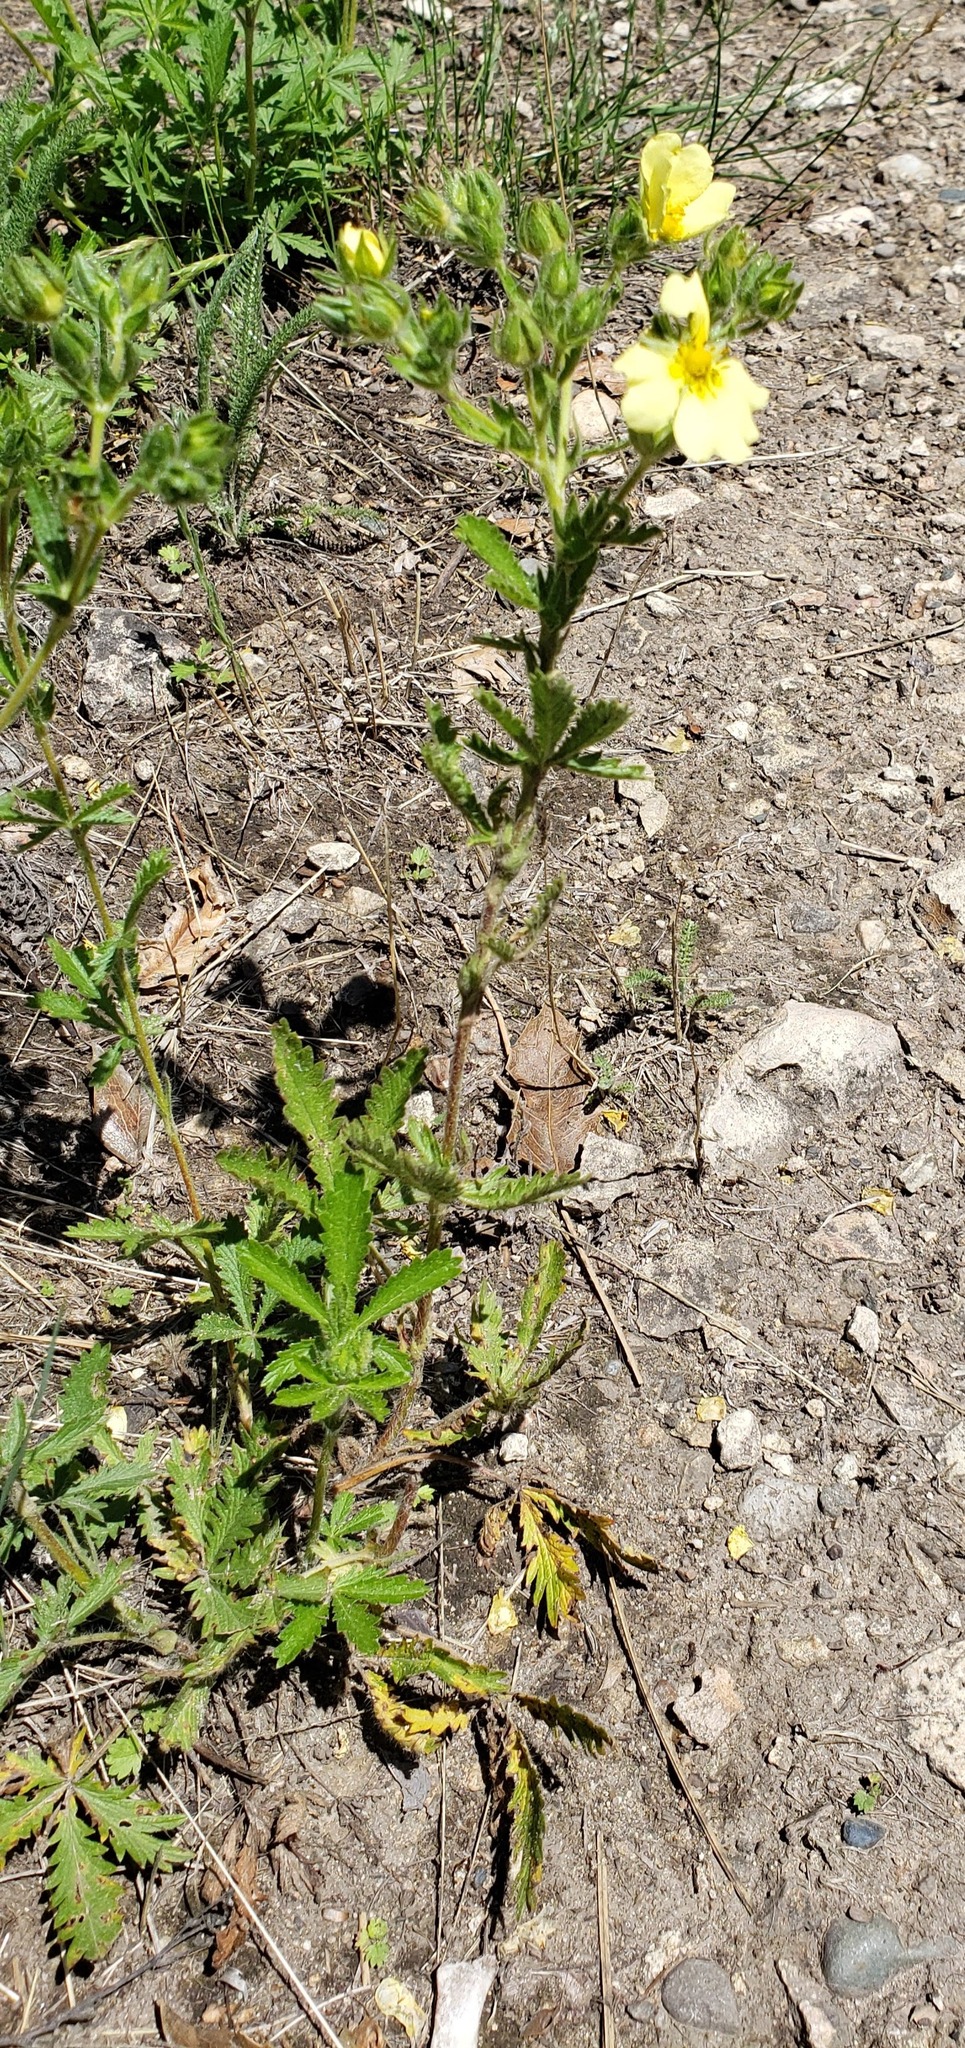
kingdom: Plantae
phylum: Tracheophyta
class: Magnoliopsida
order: Rosales
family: Rosaceae
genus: Potentilla
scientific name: Potentilla recta
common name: Sulphur cinquefoil
